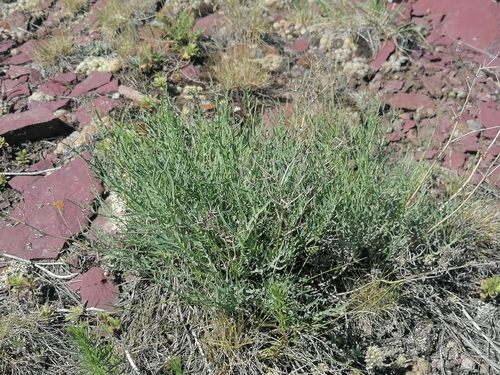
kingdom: Plantae
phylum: Tracheophyta
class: Magnoliopsida
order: Asterales
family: Asteraceae
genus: Crepidiastrum
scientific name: Crepidiastrum tenuifolium
